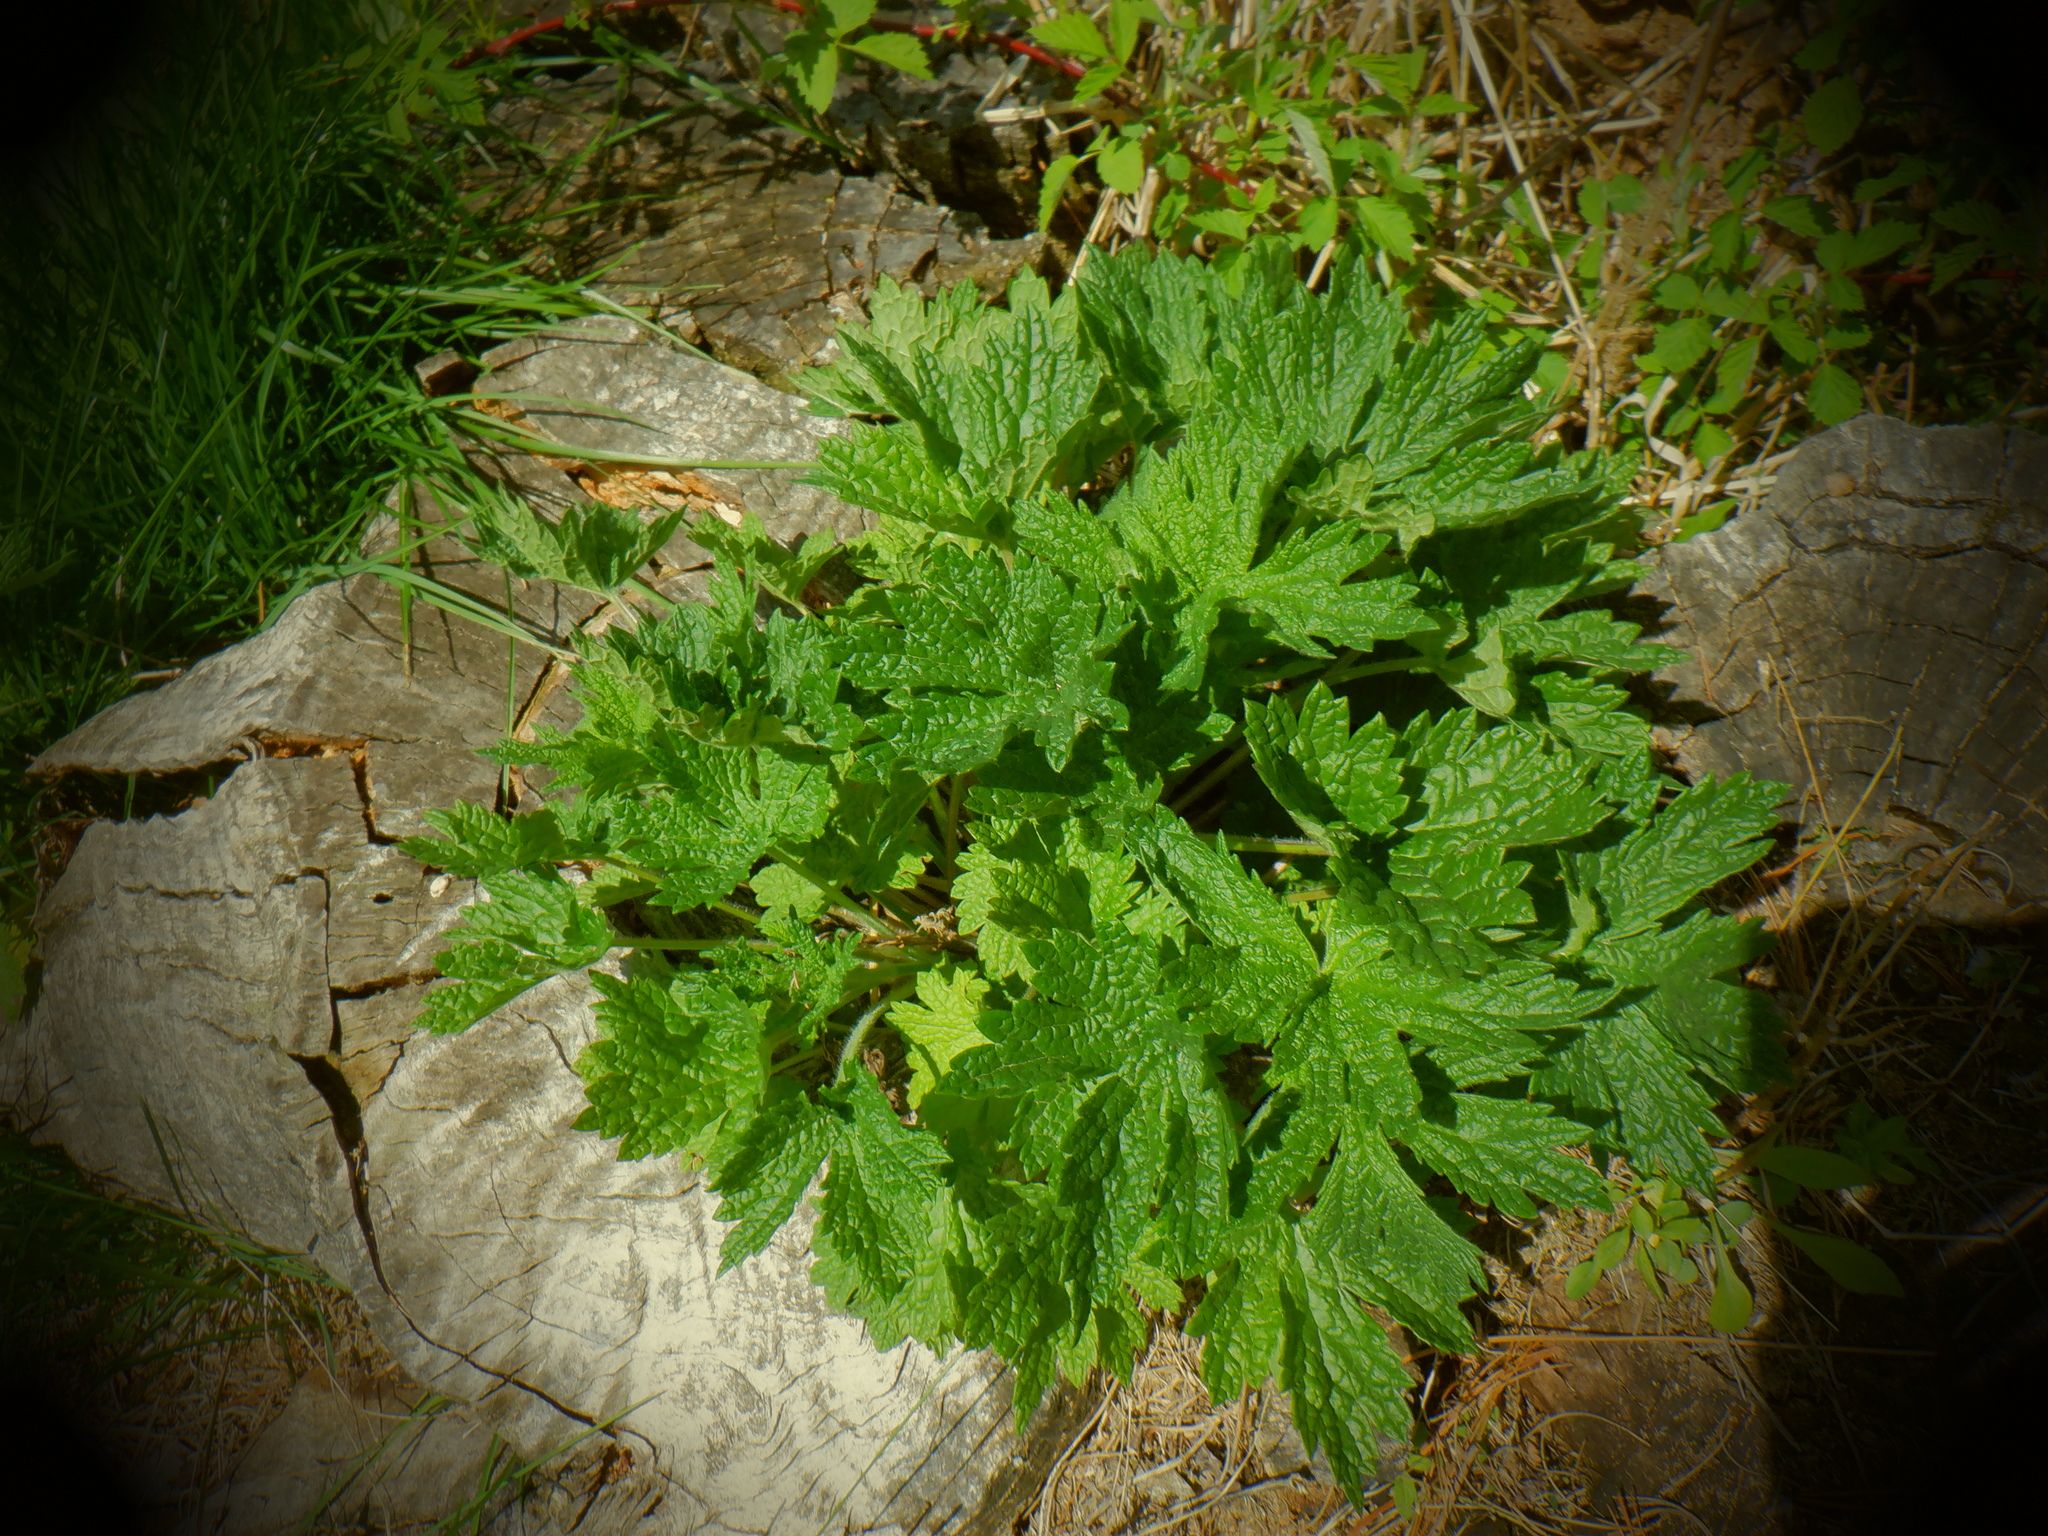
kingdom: Plantae
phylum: Tracheophyta
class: Magnoliopsida
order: Lamiales
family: Lamiaceae
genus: Leonurus
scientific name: Leonurus cardiaca
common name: Motherwort
